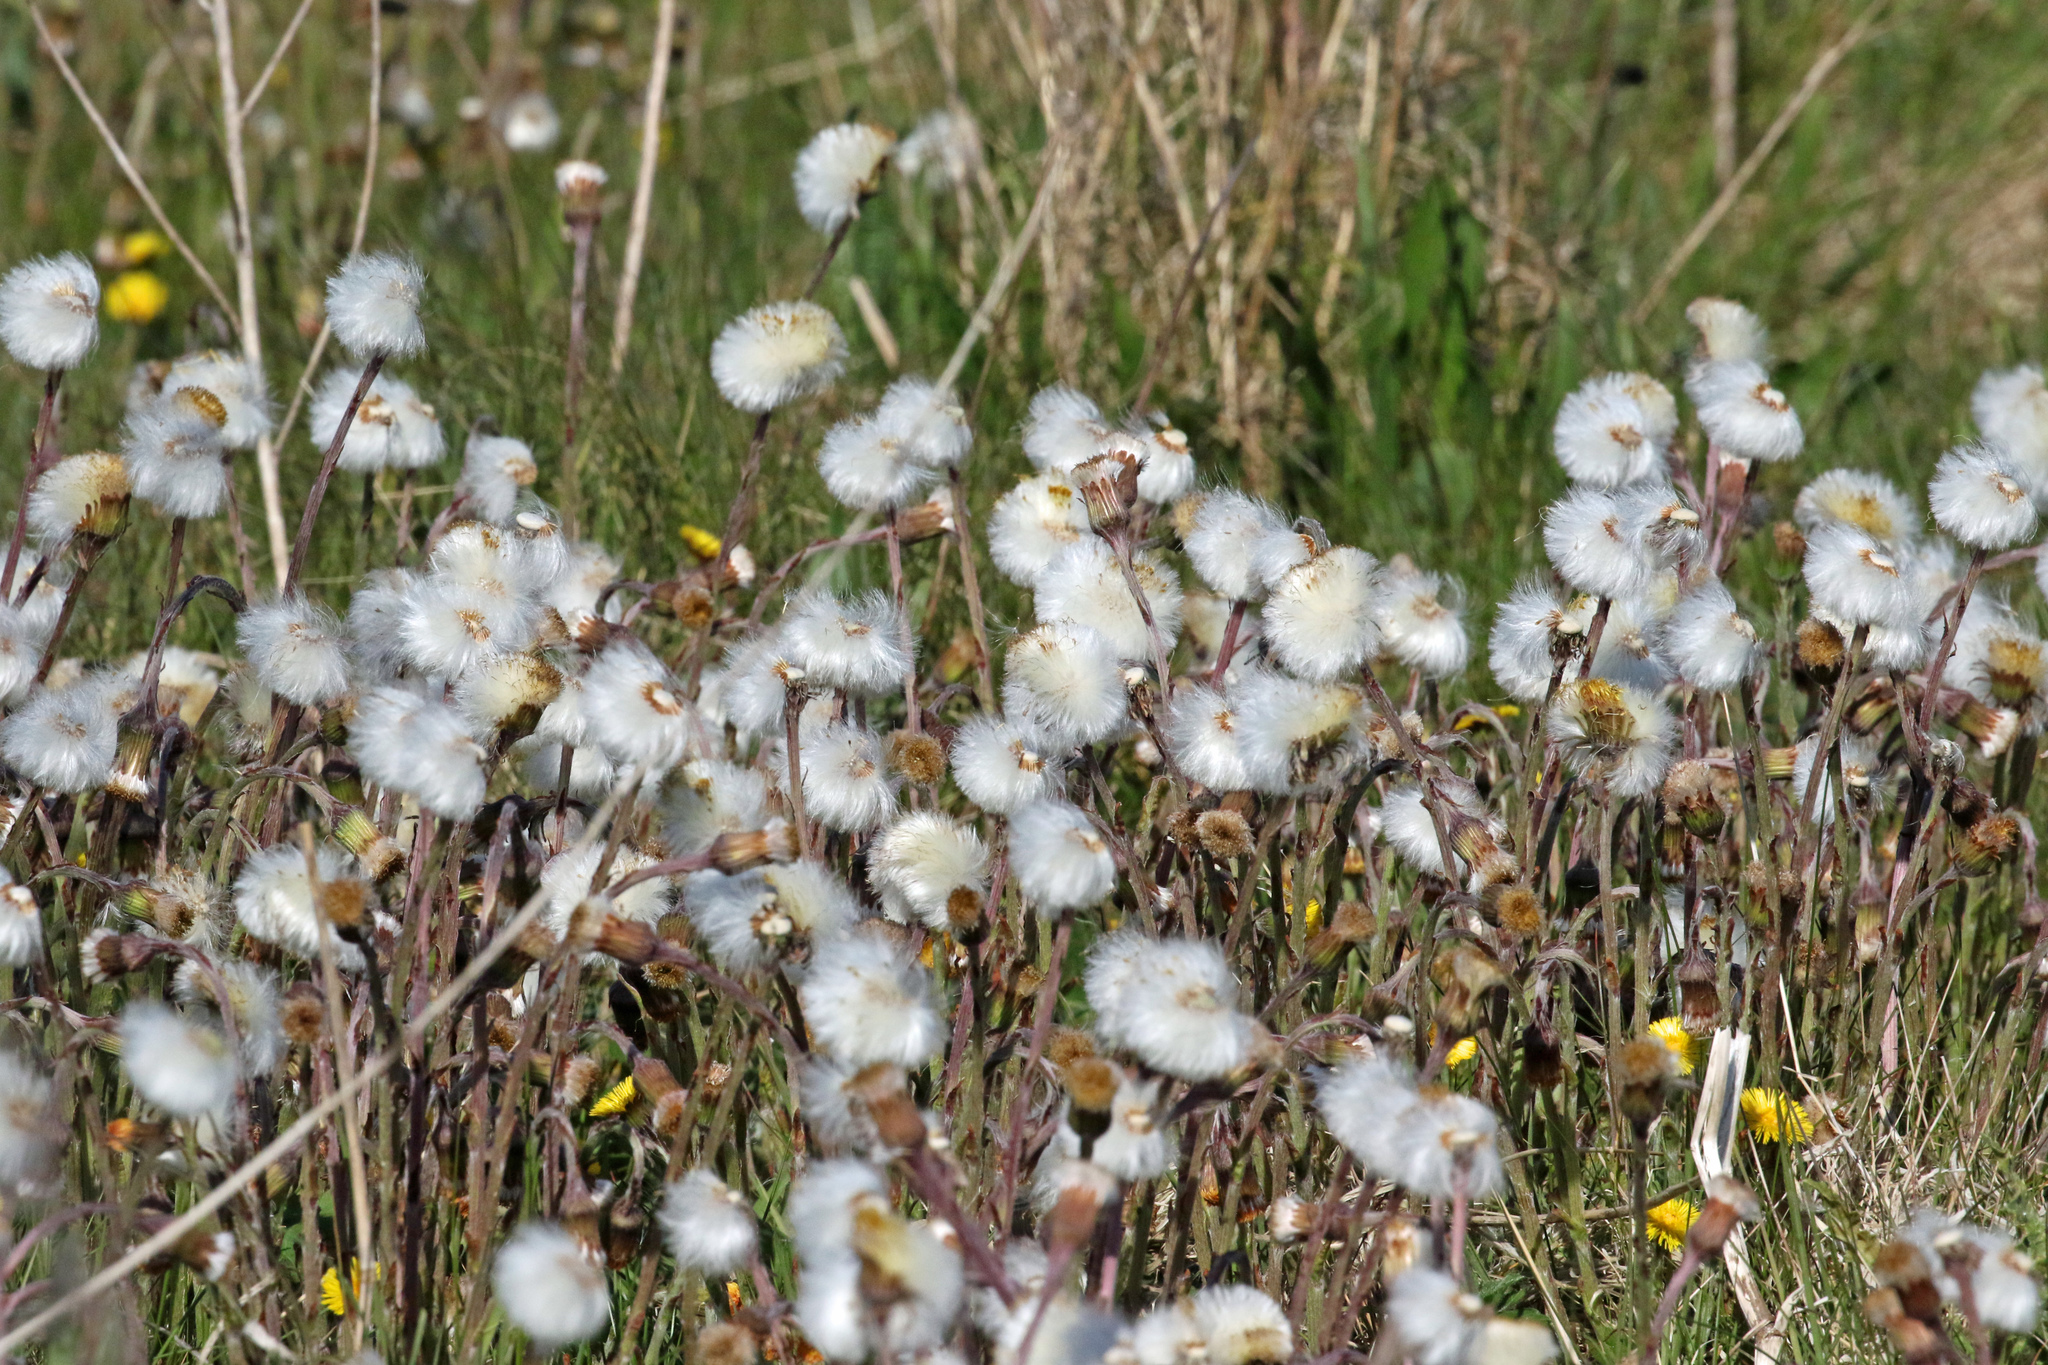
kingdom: Plantae
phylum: Tracheophyta
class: Magnoliopsida
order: Asterales
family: Asteraceae
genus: Tussilago
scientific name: Tussilago farfara
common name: Coltsfoot
